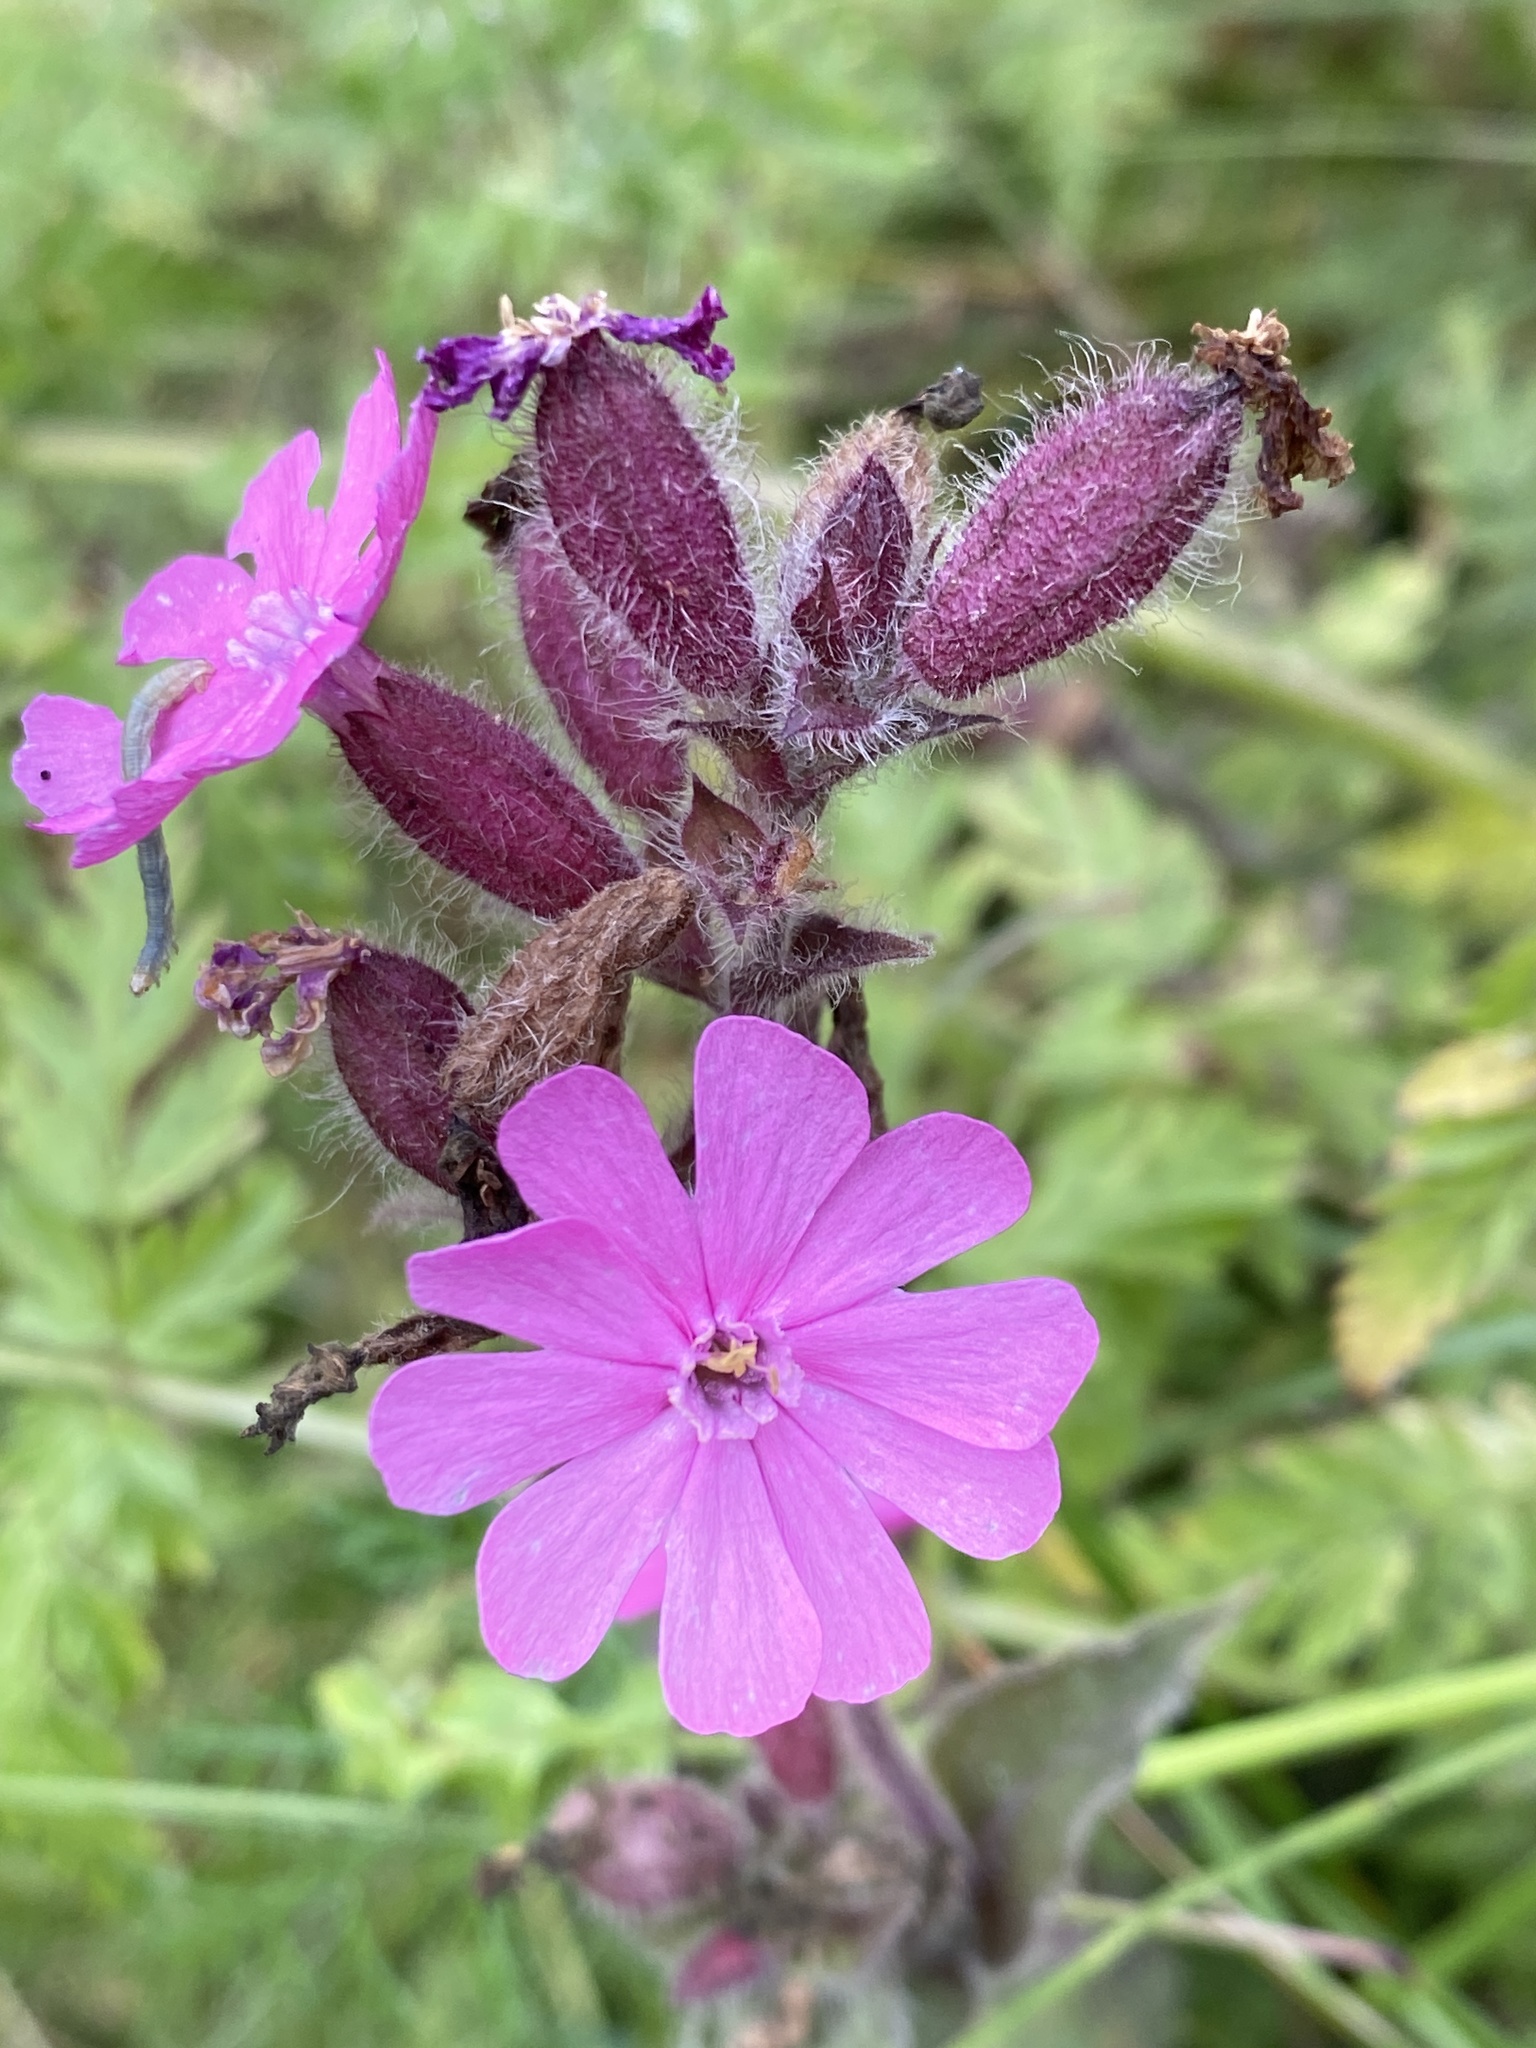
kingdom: Plantae
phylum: Tracheophyta
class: Magnoliopsida
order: Caryophyllales
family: Caryophyllaceae
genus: Silene
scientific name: Silene dioica
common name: Red campion
